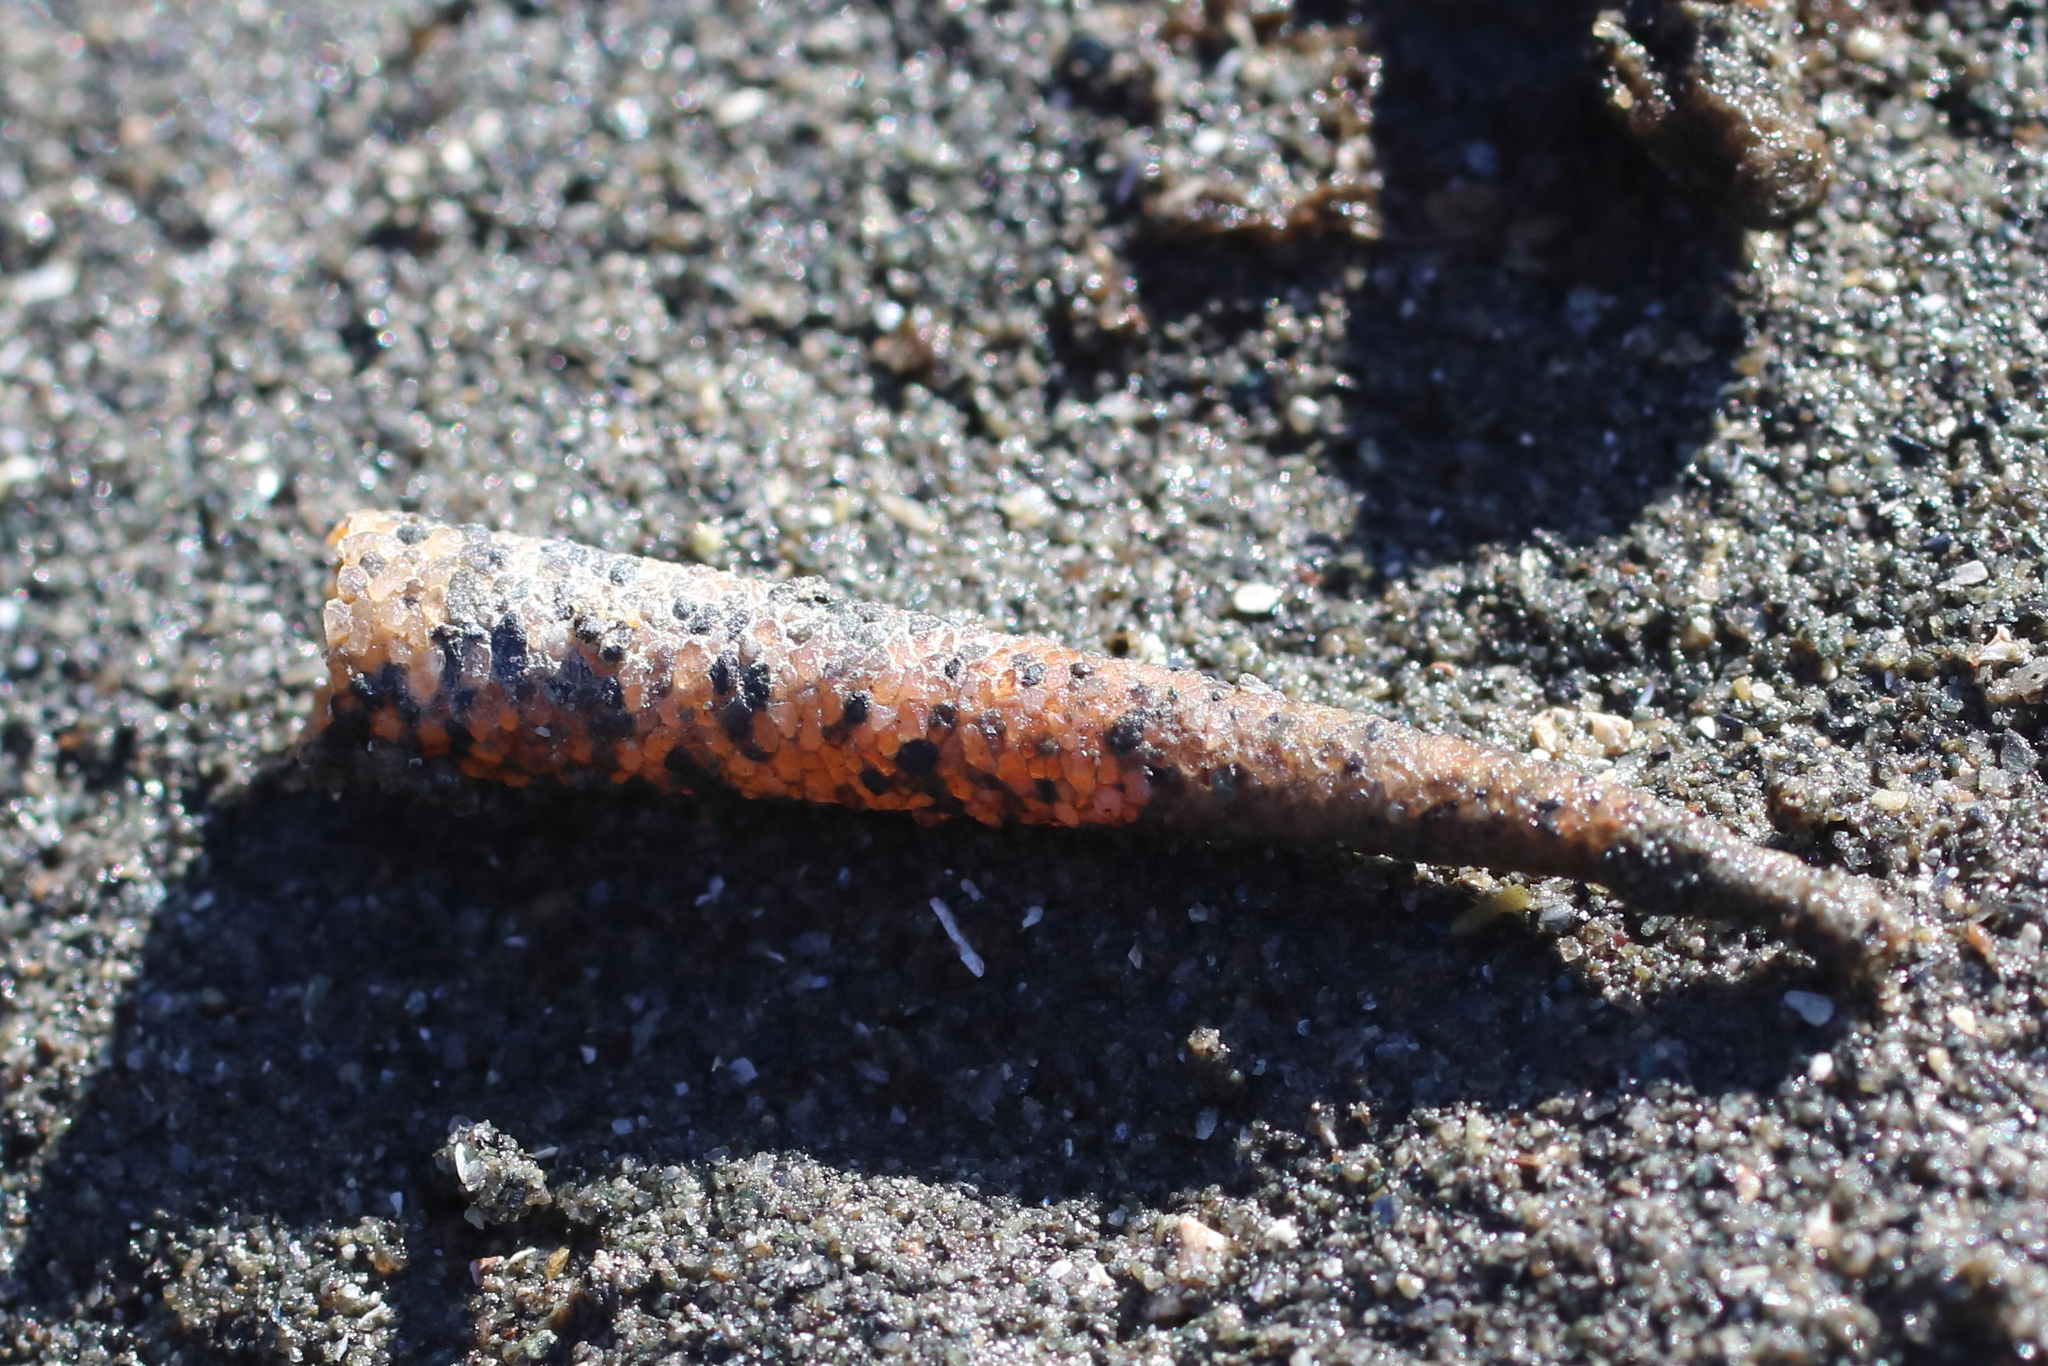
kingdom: Animalia
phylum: Annelida
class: Polychaeta
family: Pectinariidae
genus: Cistenides
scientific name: Cistenides brevicoma
